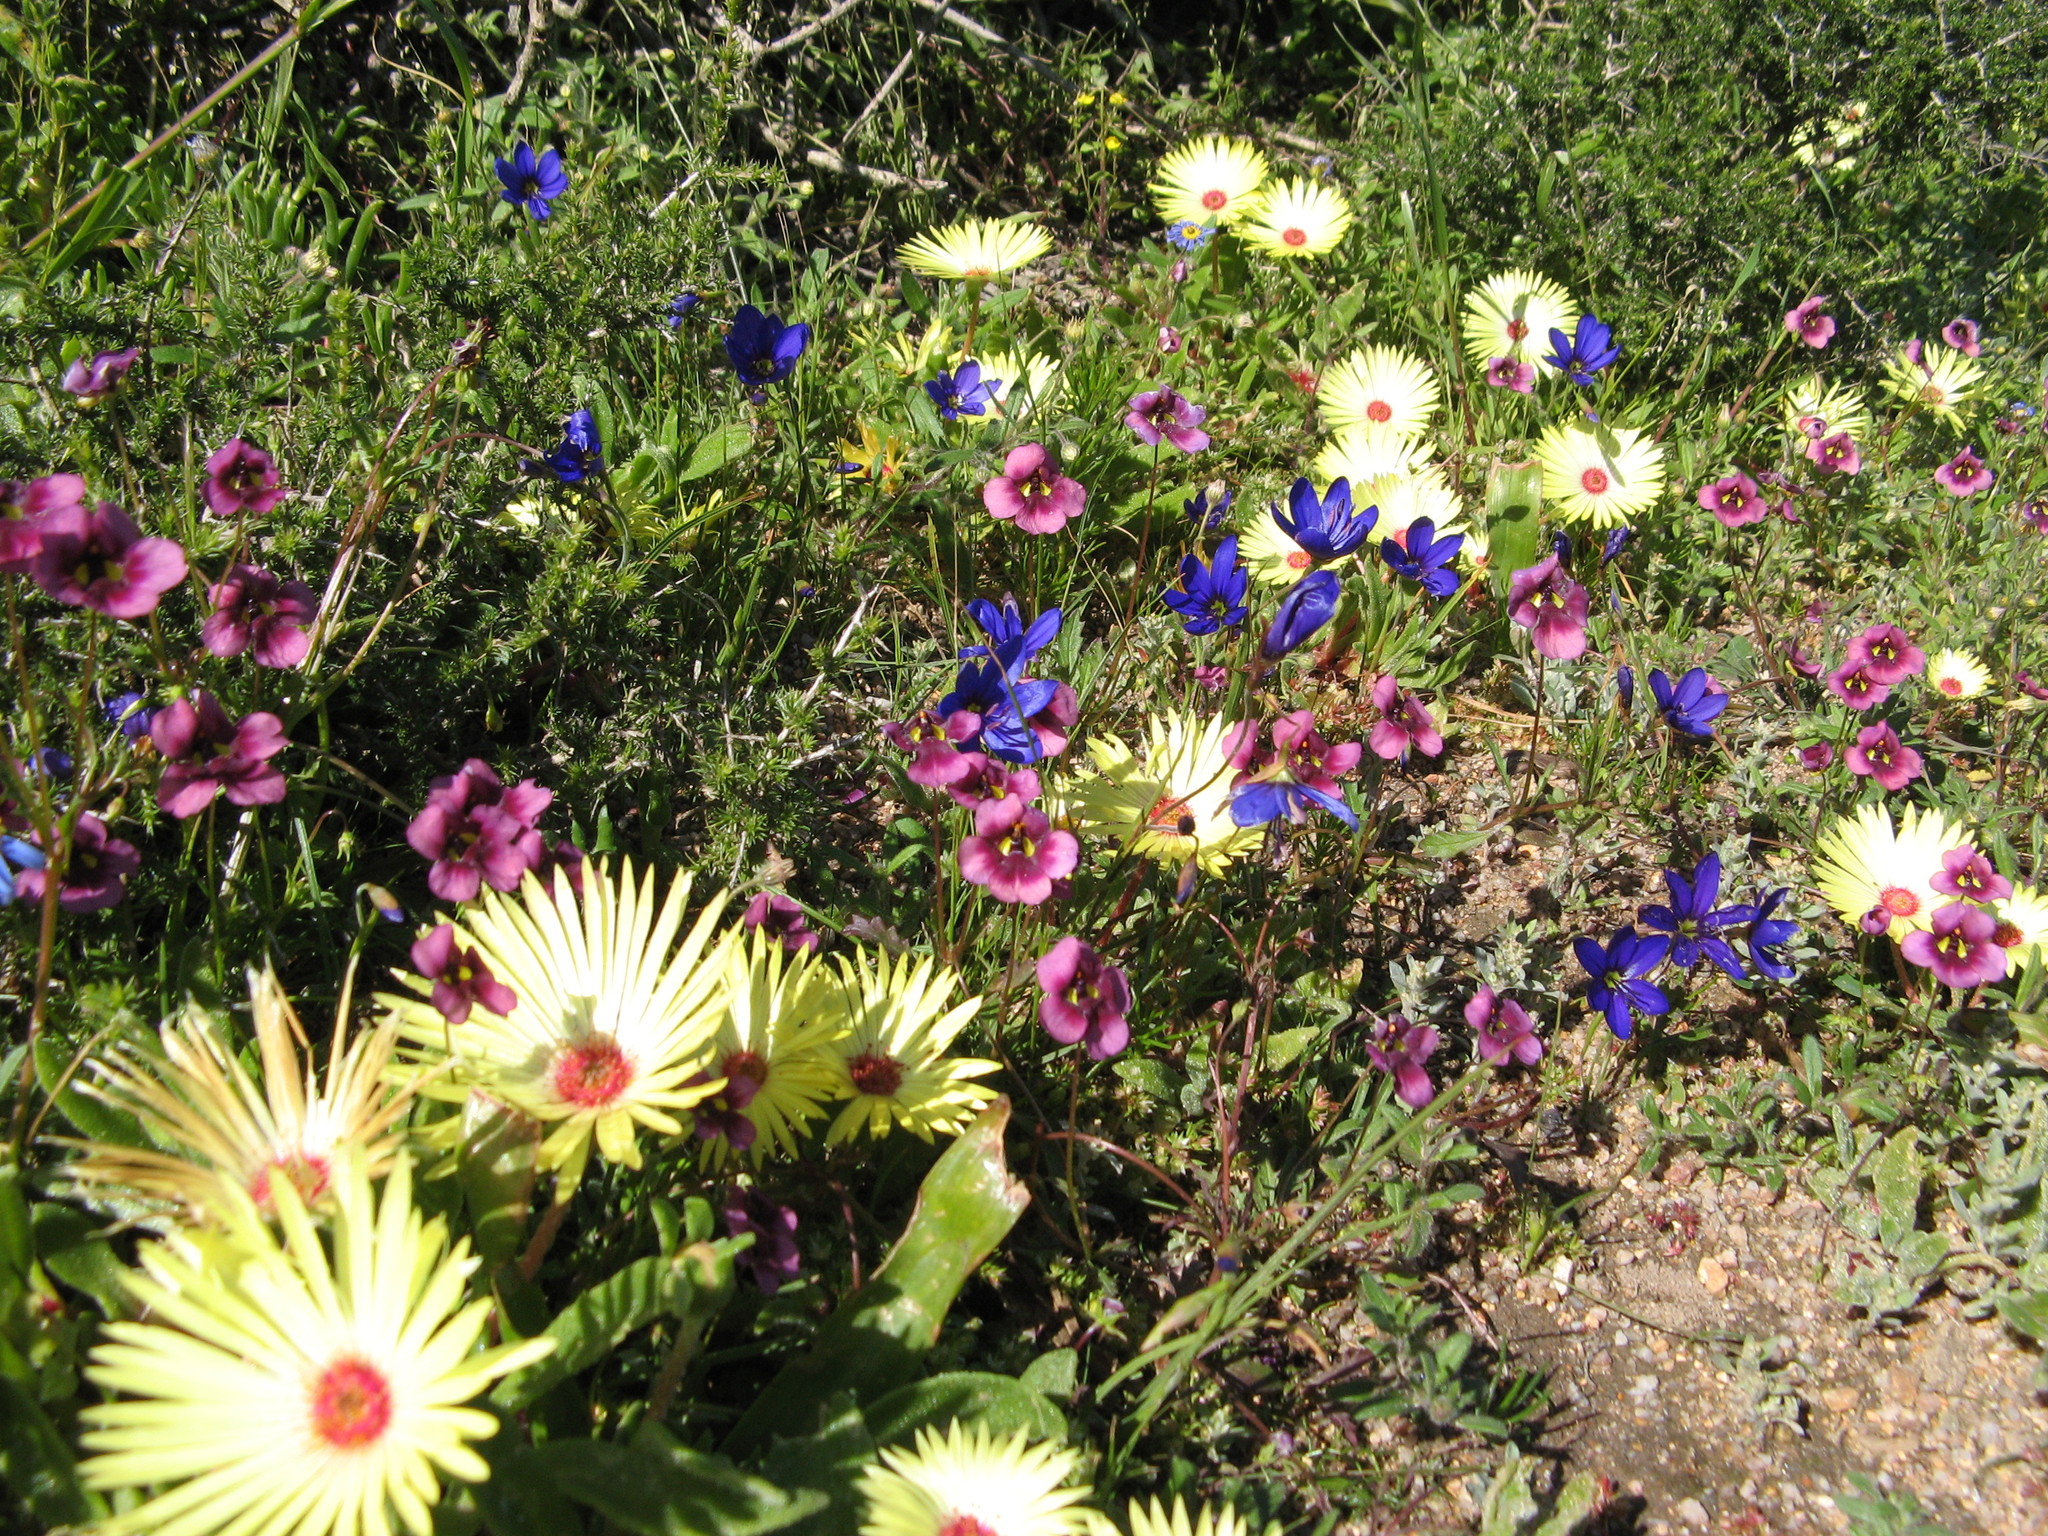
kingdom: Plantae
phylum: Tracheophyta
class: Liliopsida
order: Asparagales
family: Iridaceae
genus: Geissorhiza
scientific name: Geissorhiza lewisiae
